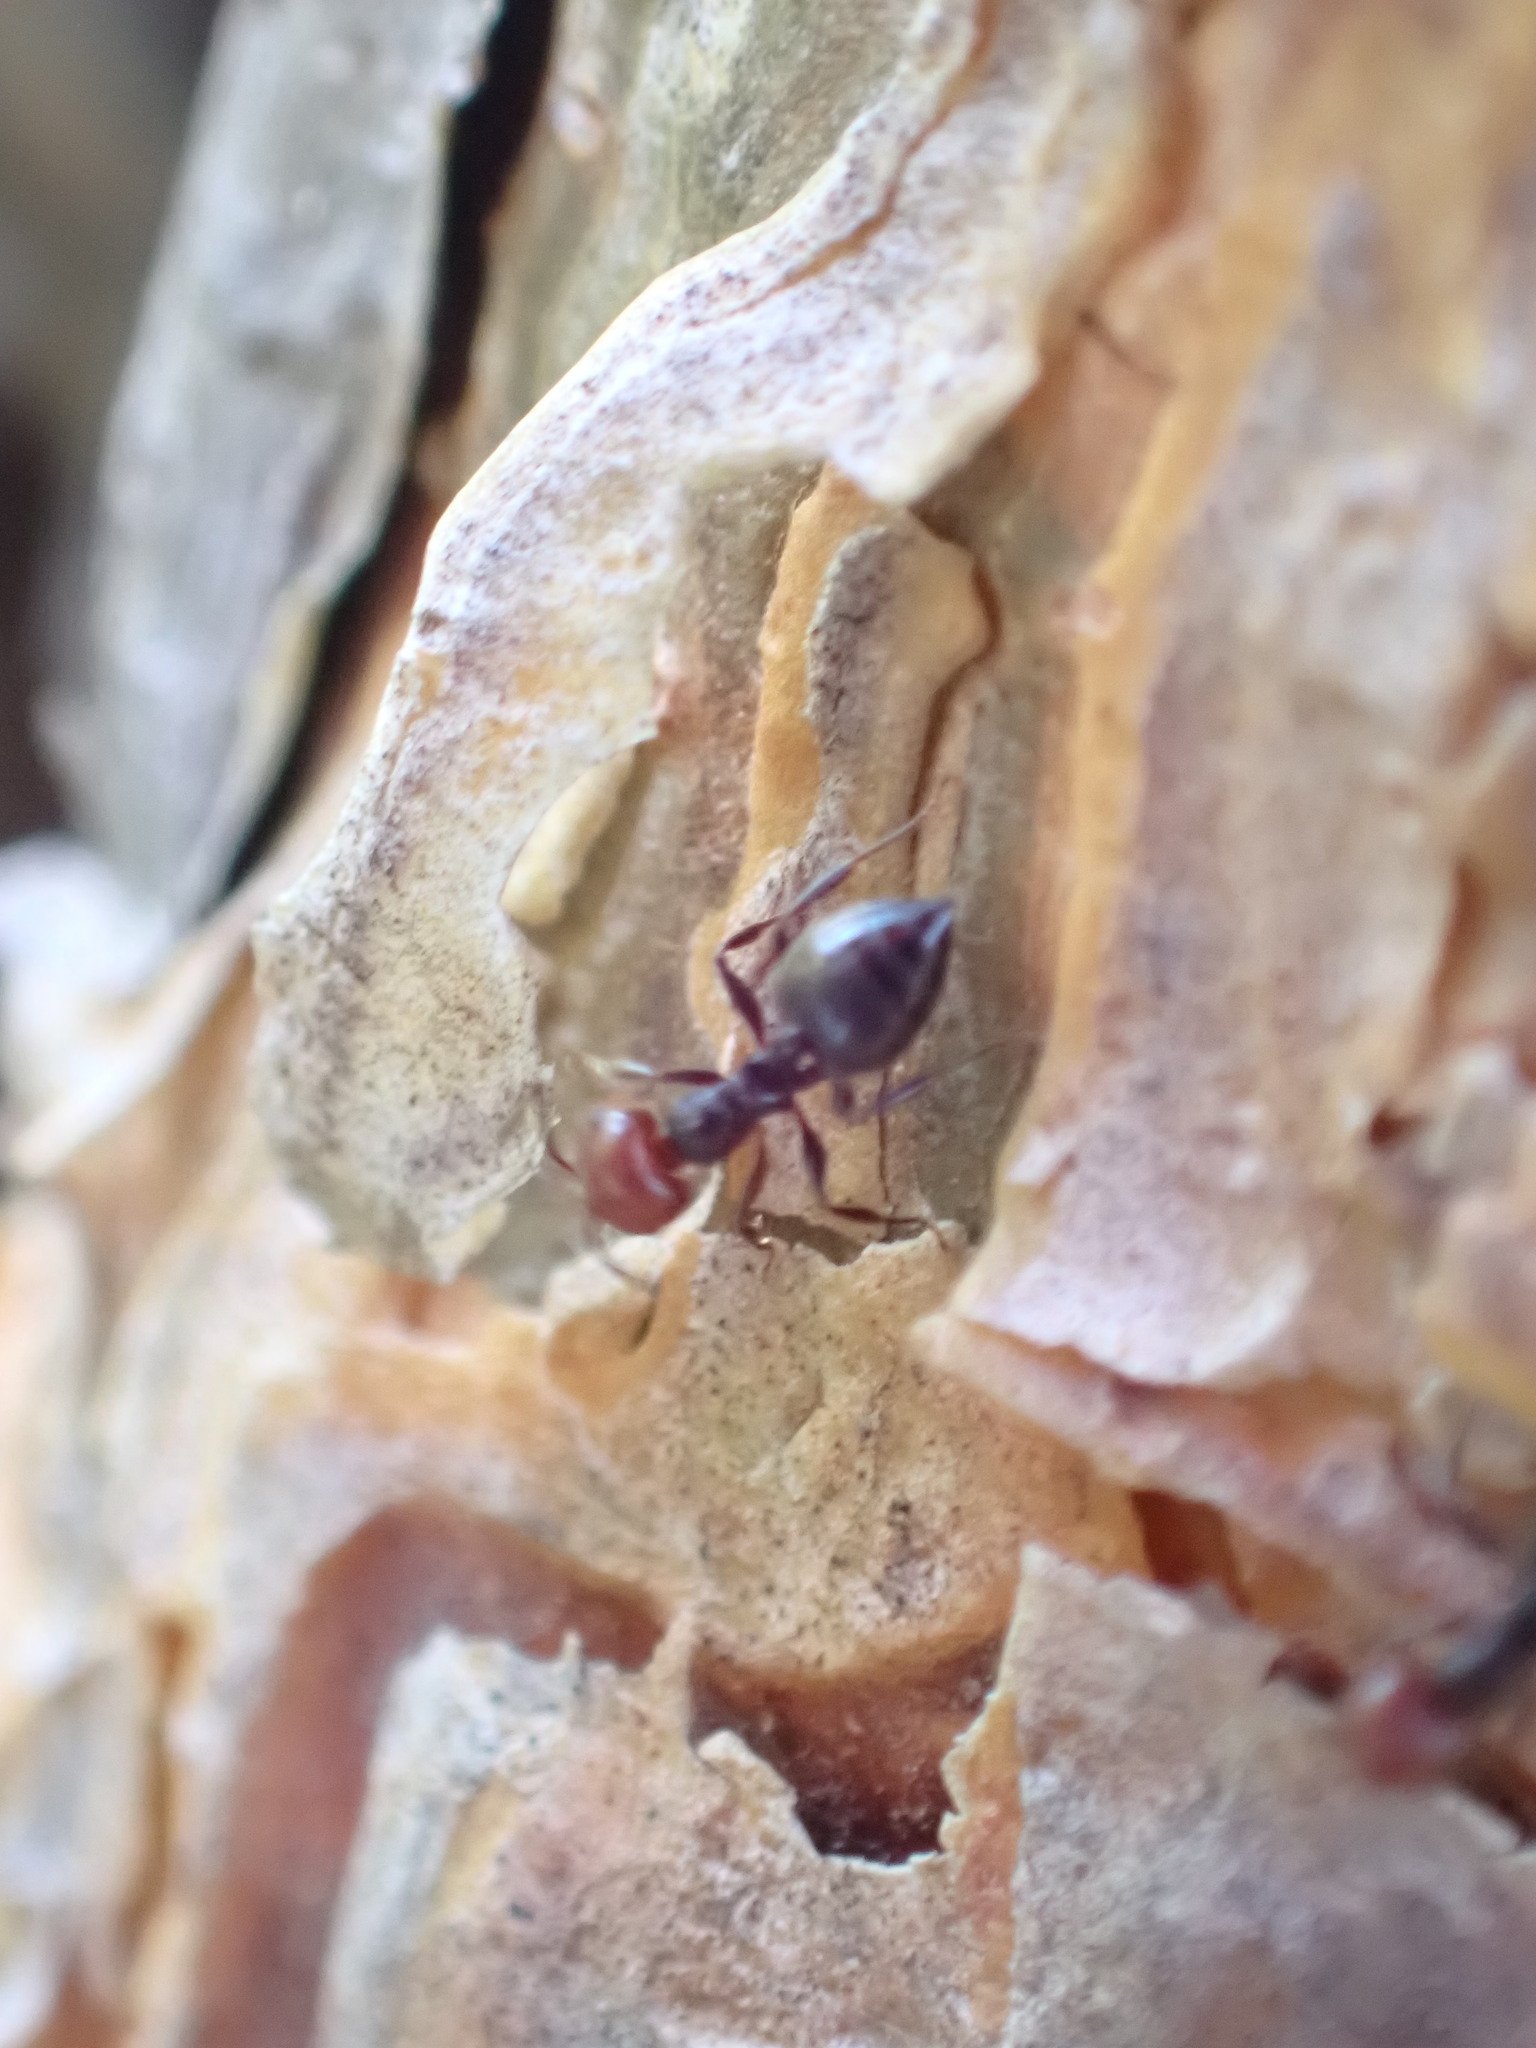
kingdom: Animalia
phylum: Arthropoda
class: Insecta
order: Hymenoptera
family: Formicidae
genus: Crematogaster
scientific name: Crematogaster scutellaris
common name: Fourmi du liège
